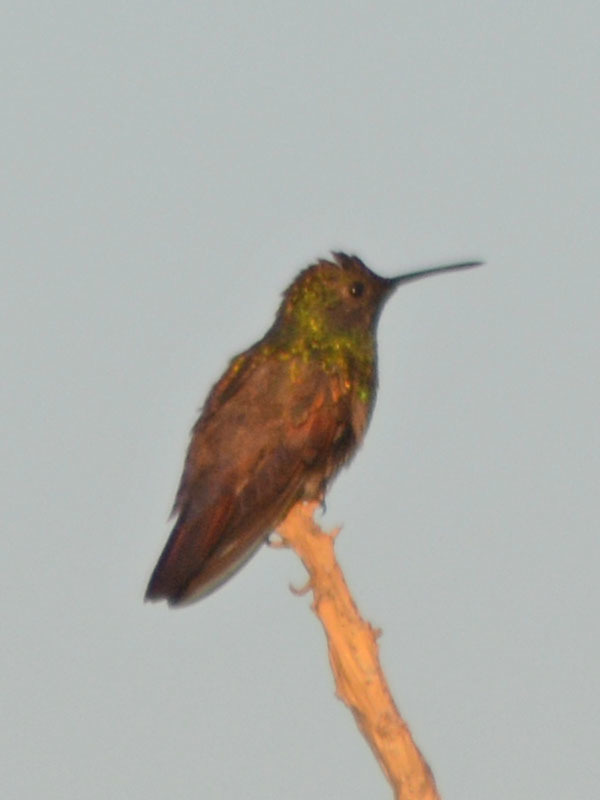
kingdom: Animalia
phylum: Chordata
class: Aves
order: Apodiformes
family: Trochilidae
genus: Saucerottia
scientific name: Saucerottia beryllina
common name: Berylline hummingbird
